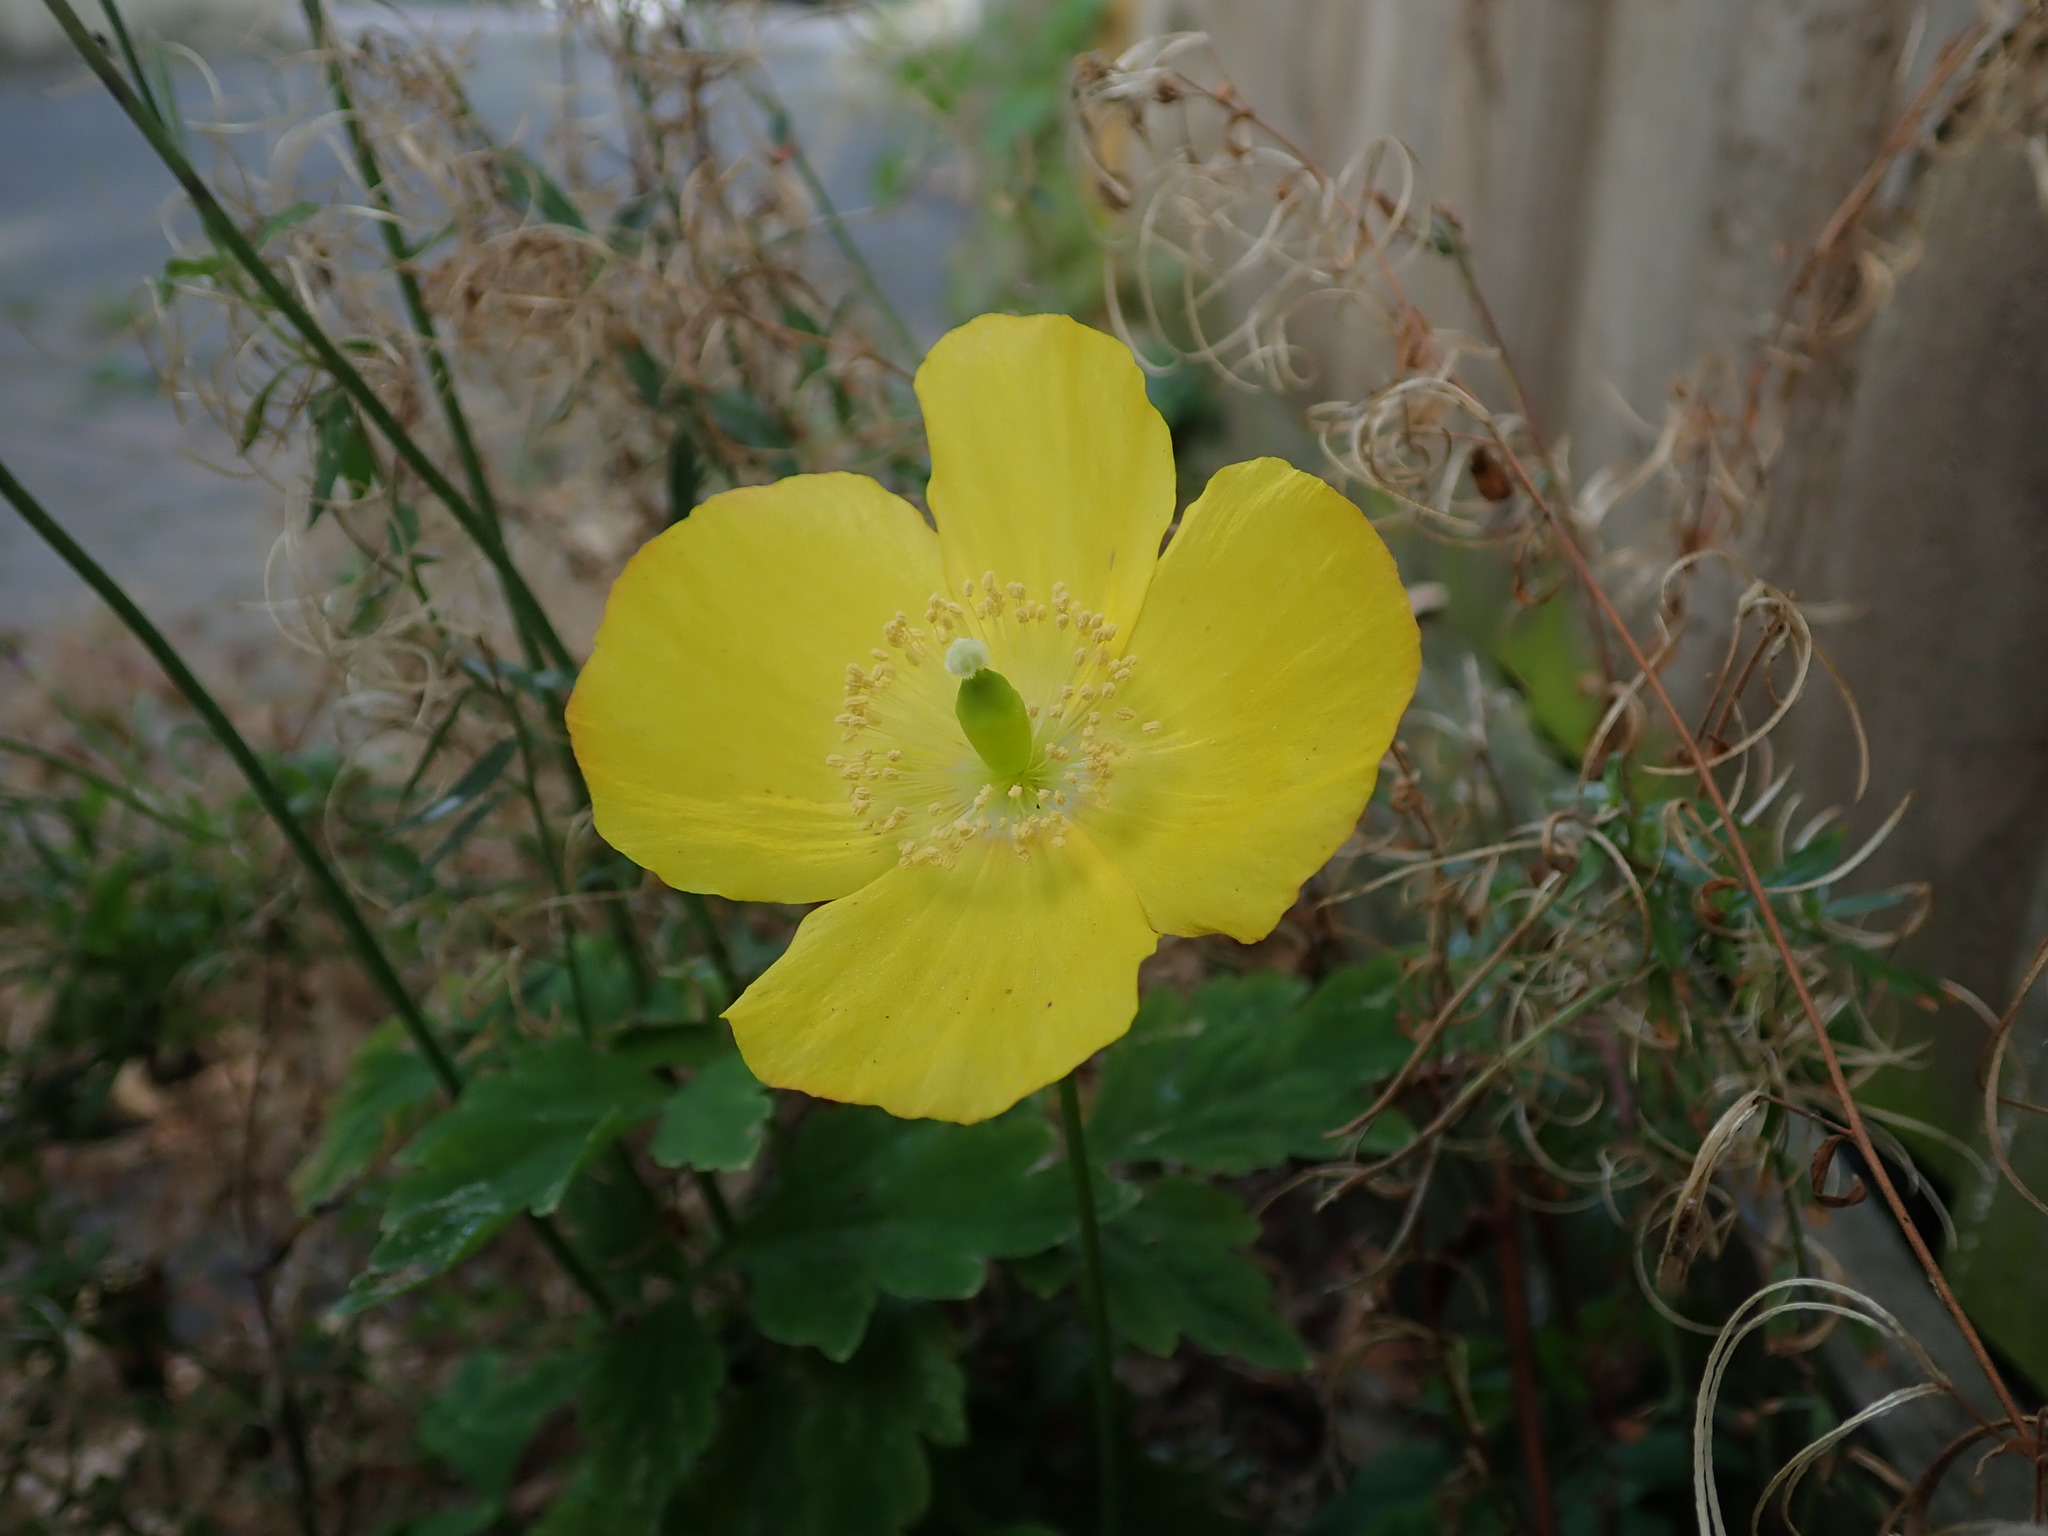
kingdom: Plantae
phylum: Tracheophyta
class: Magnoliopsida
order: Ranunculales
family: Papaveraceae
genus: Papaver
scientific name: Papaver cambricum
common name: Poppy
